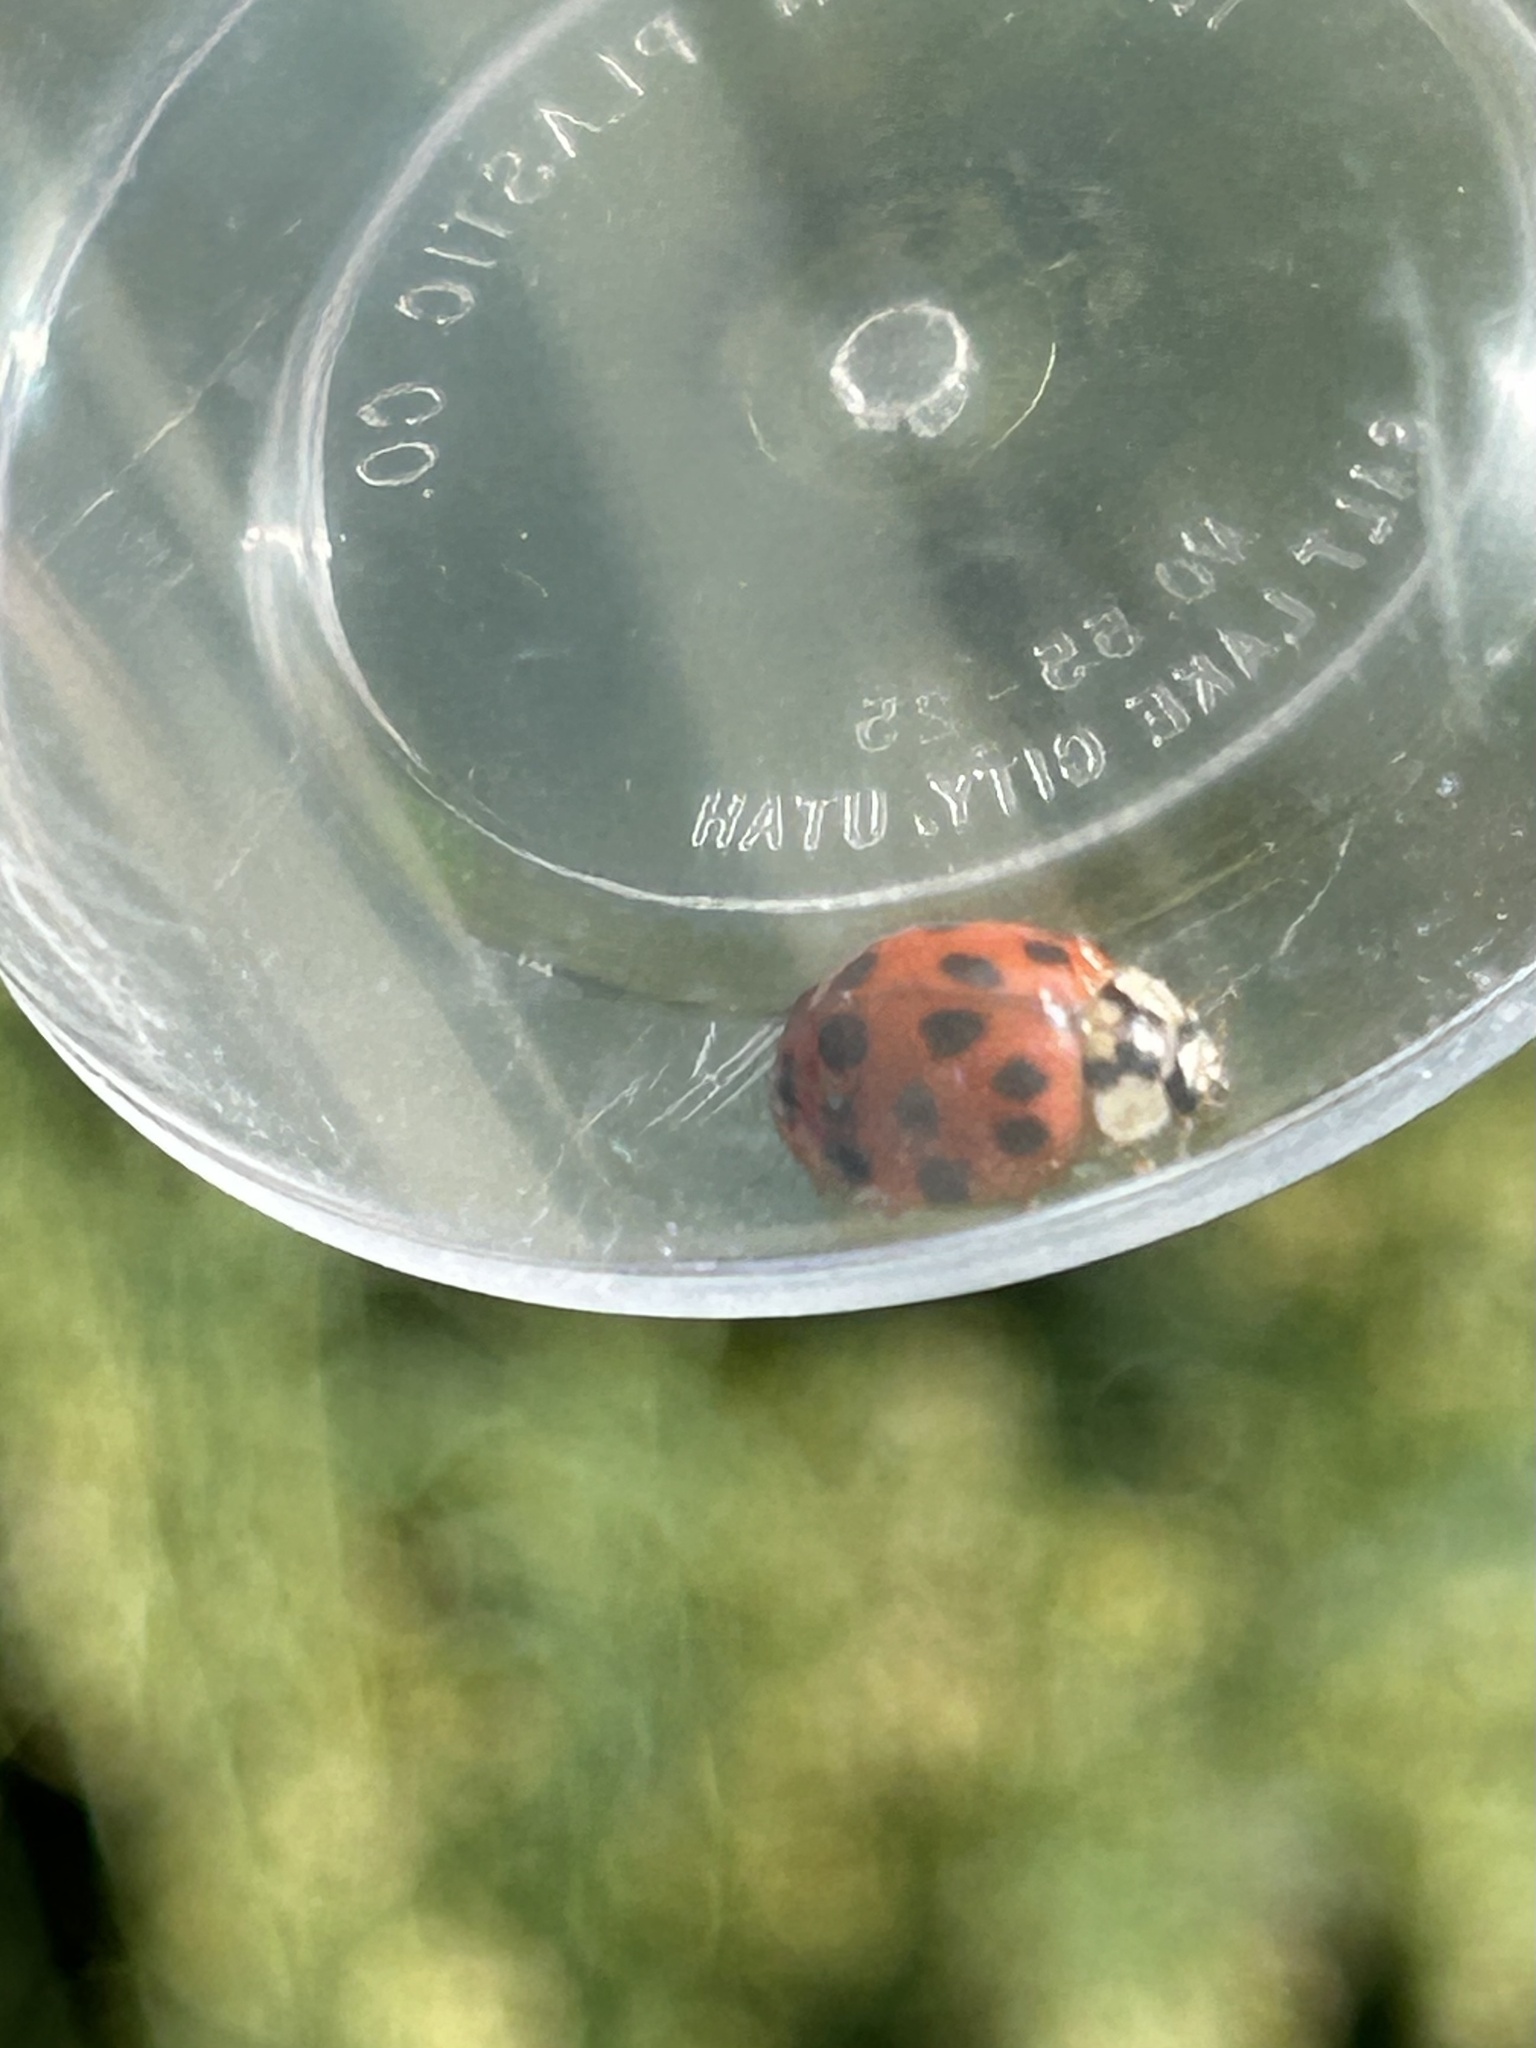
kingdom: Animalia
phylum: Arthropoda
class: Insecta
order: Coleoptera
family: Coccinellidae
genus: Harmonia
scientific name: Harmonia axyridis
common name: Harlequin ladybird
